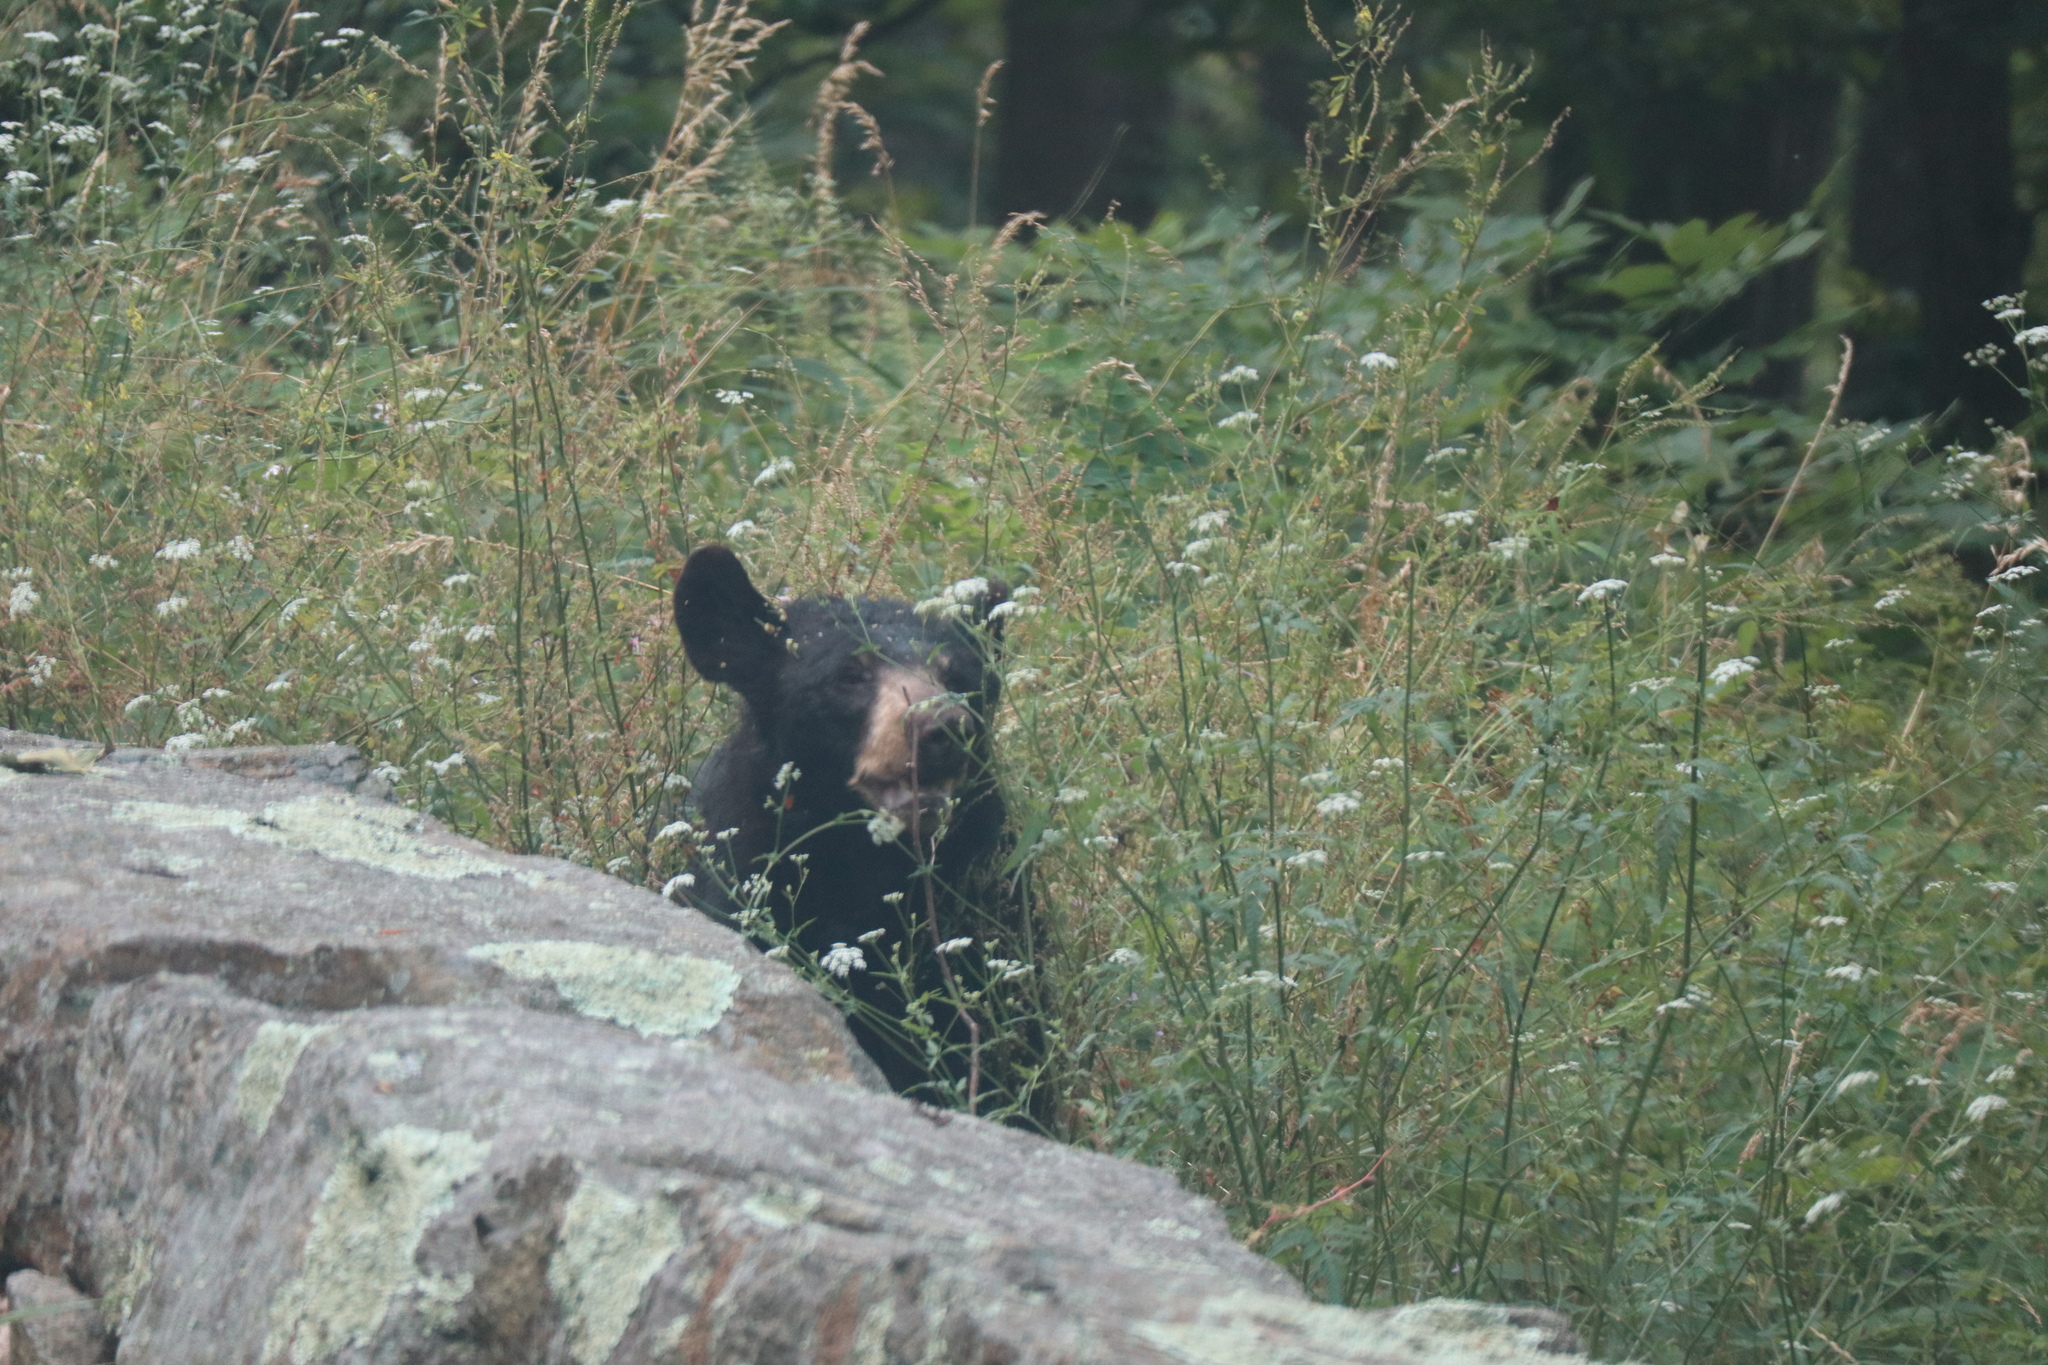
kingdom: Animalia
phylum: Chordata
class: Mammalia
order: Carnivora
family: Ursidae
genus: Ursus
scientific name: Ursus americanus
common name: American black bear
